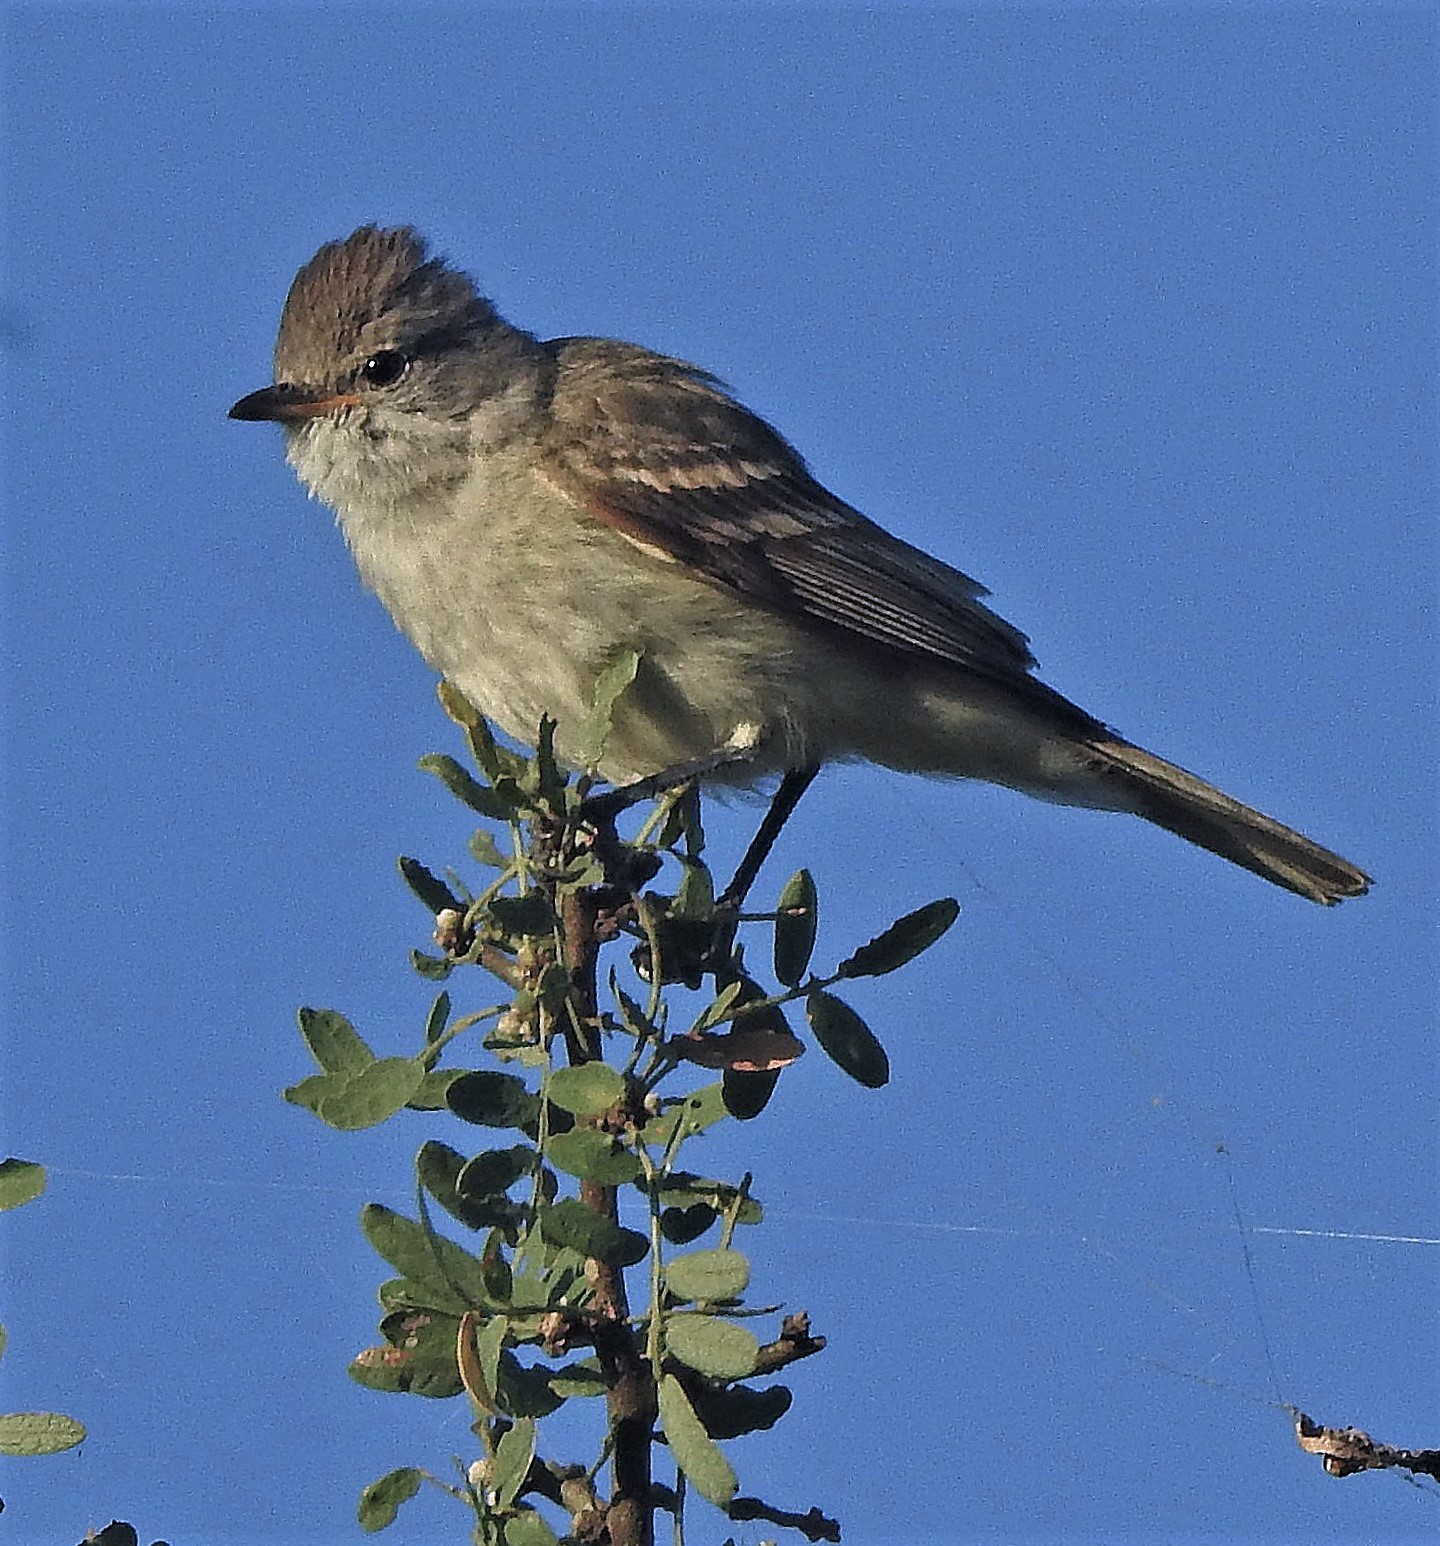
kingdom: Animalia
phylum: Chordata
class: Aves
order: Passeriformes
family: Tyrannidae
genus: Camptostoma
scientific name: Camptostoma obsoletum
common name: Southern beardless-tyrannulet
